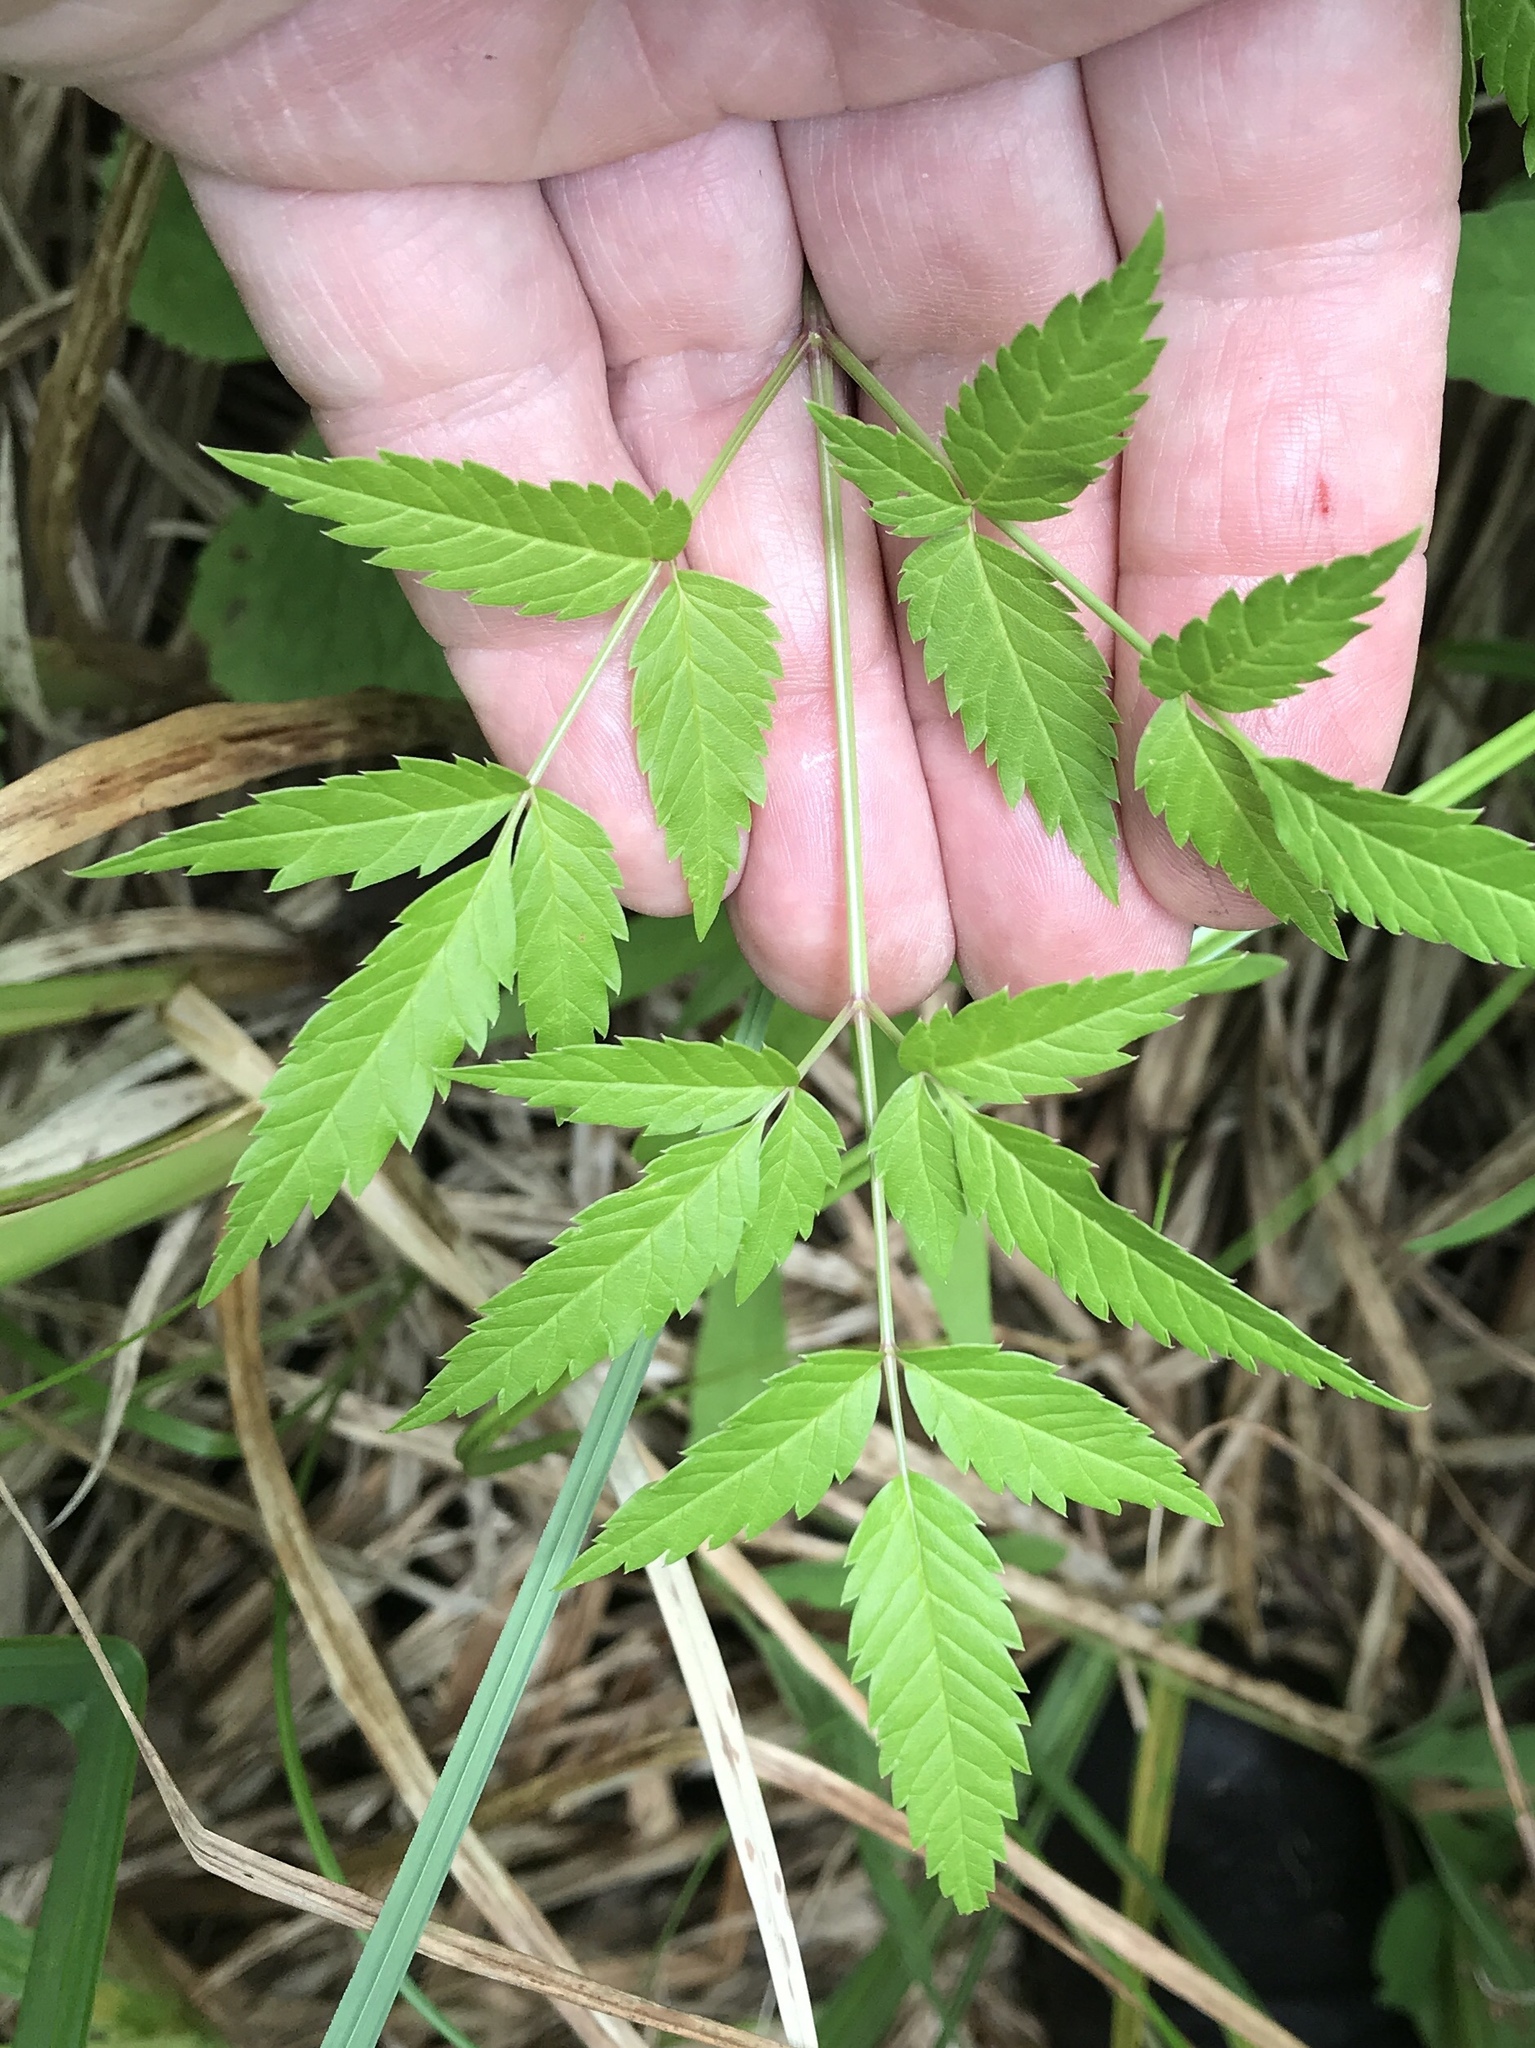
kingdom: Plantae
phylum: Tracheophyta
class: Magnoliopsida
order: Apiales
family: Apiaceae
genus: Cicuta
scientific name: Cicuta maculata
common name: Spotted cowbane
